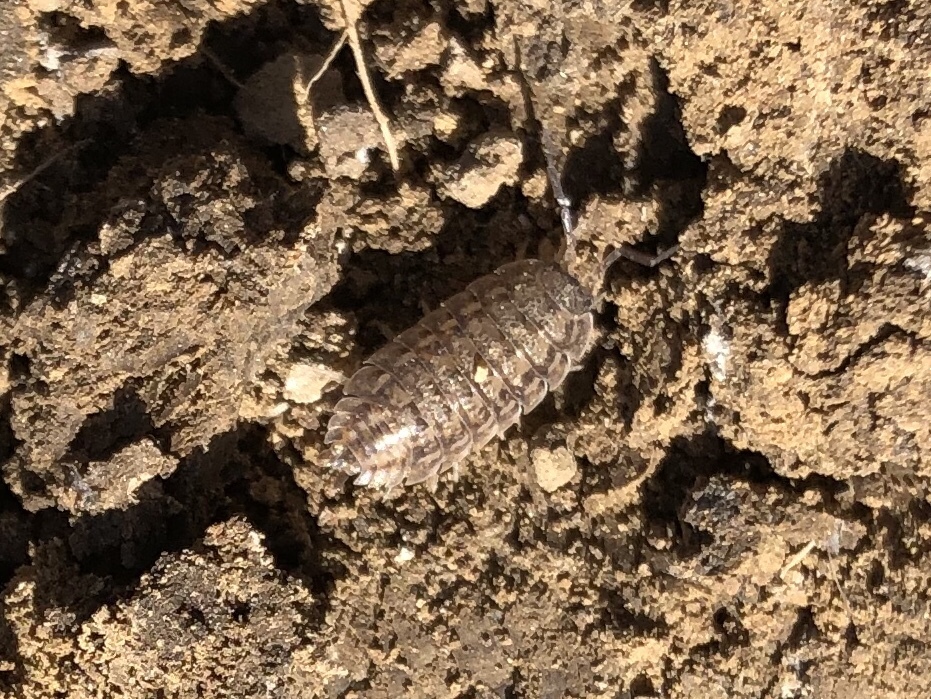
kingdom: Animalia
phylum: Arthropoda
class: Malacostraca
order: Isopoda
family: Trachelipodidae
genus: Trachelipus
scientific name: Trachelipus rathkii
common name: Isopod
